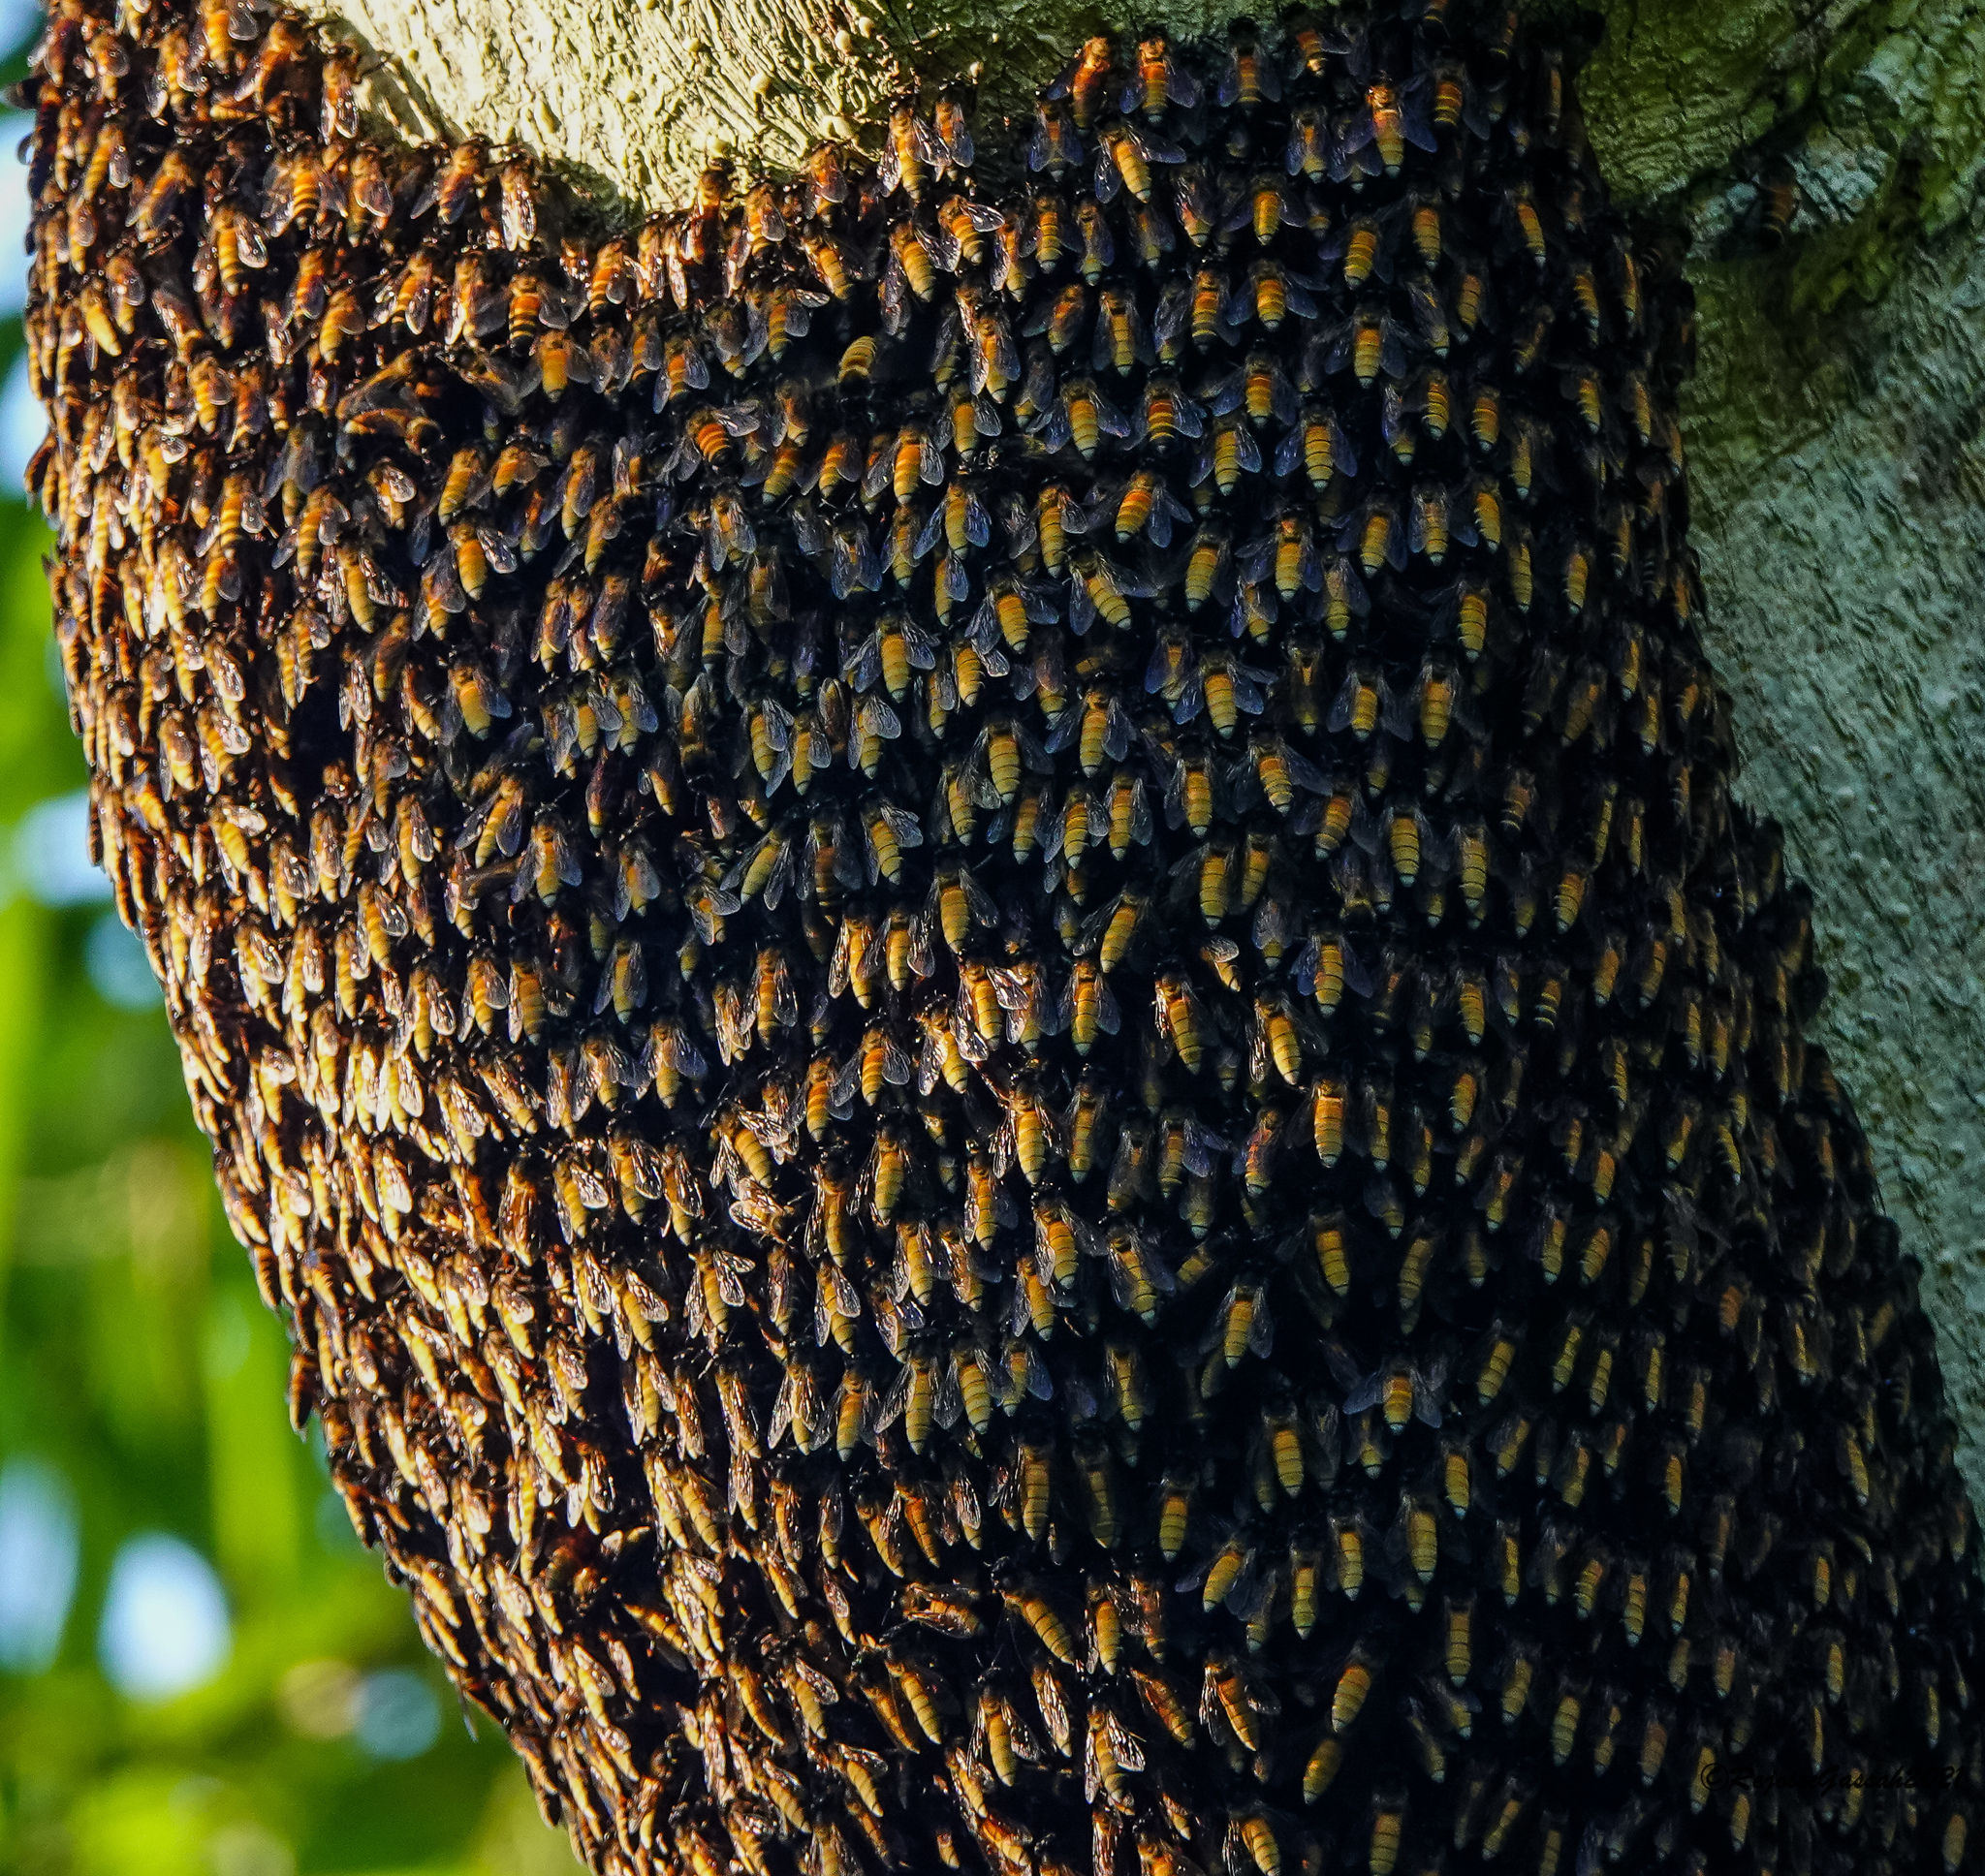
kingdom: Animalia
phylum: Arthropoda
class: Insecta
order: Hymenoptera
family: Apidae
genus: Apis
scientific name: Apis dorsata
